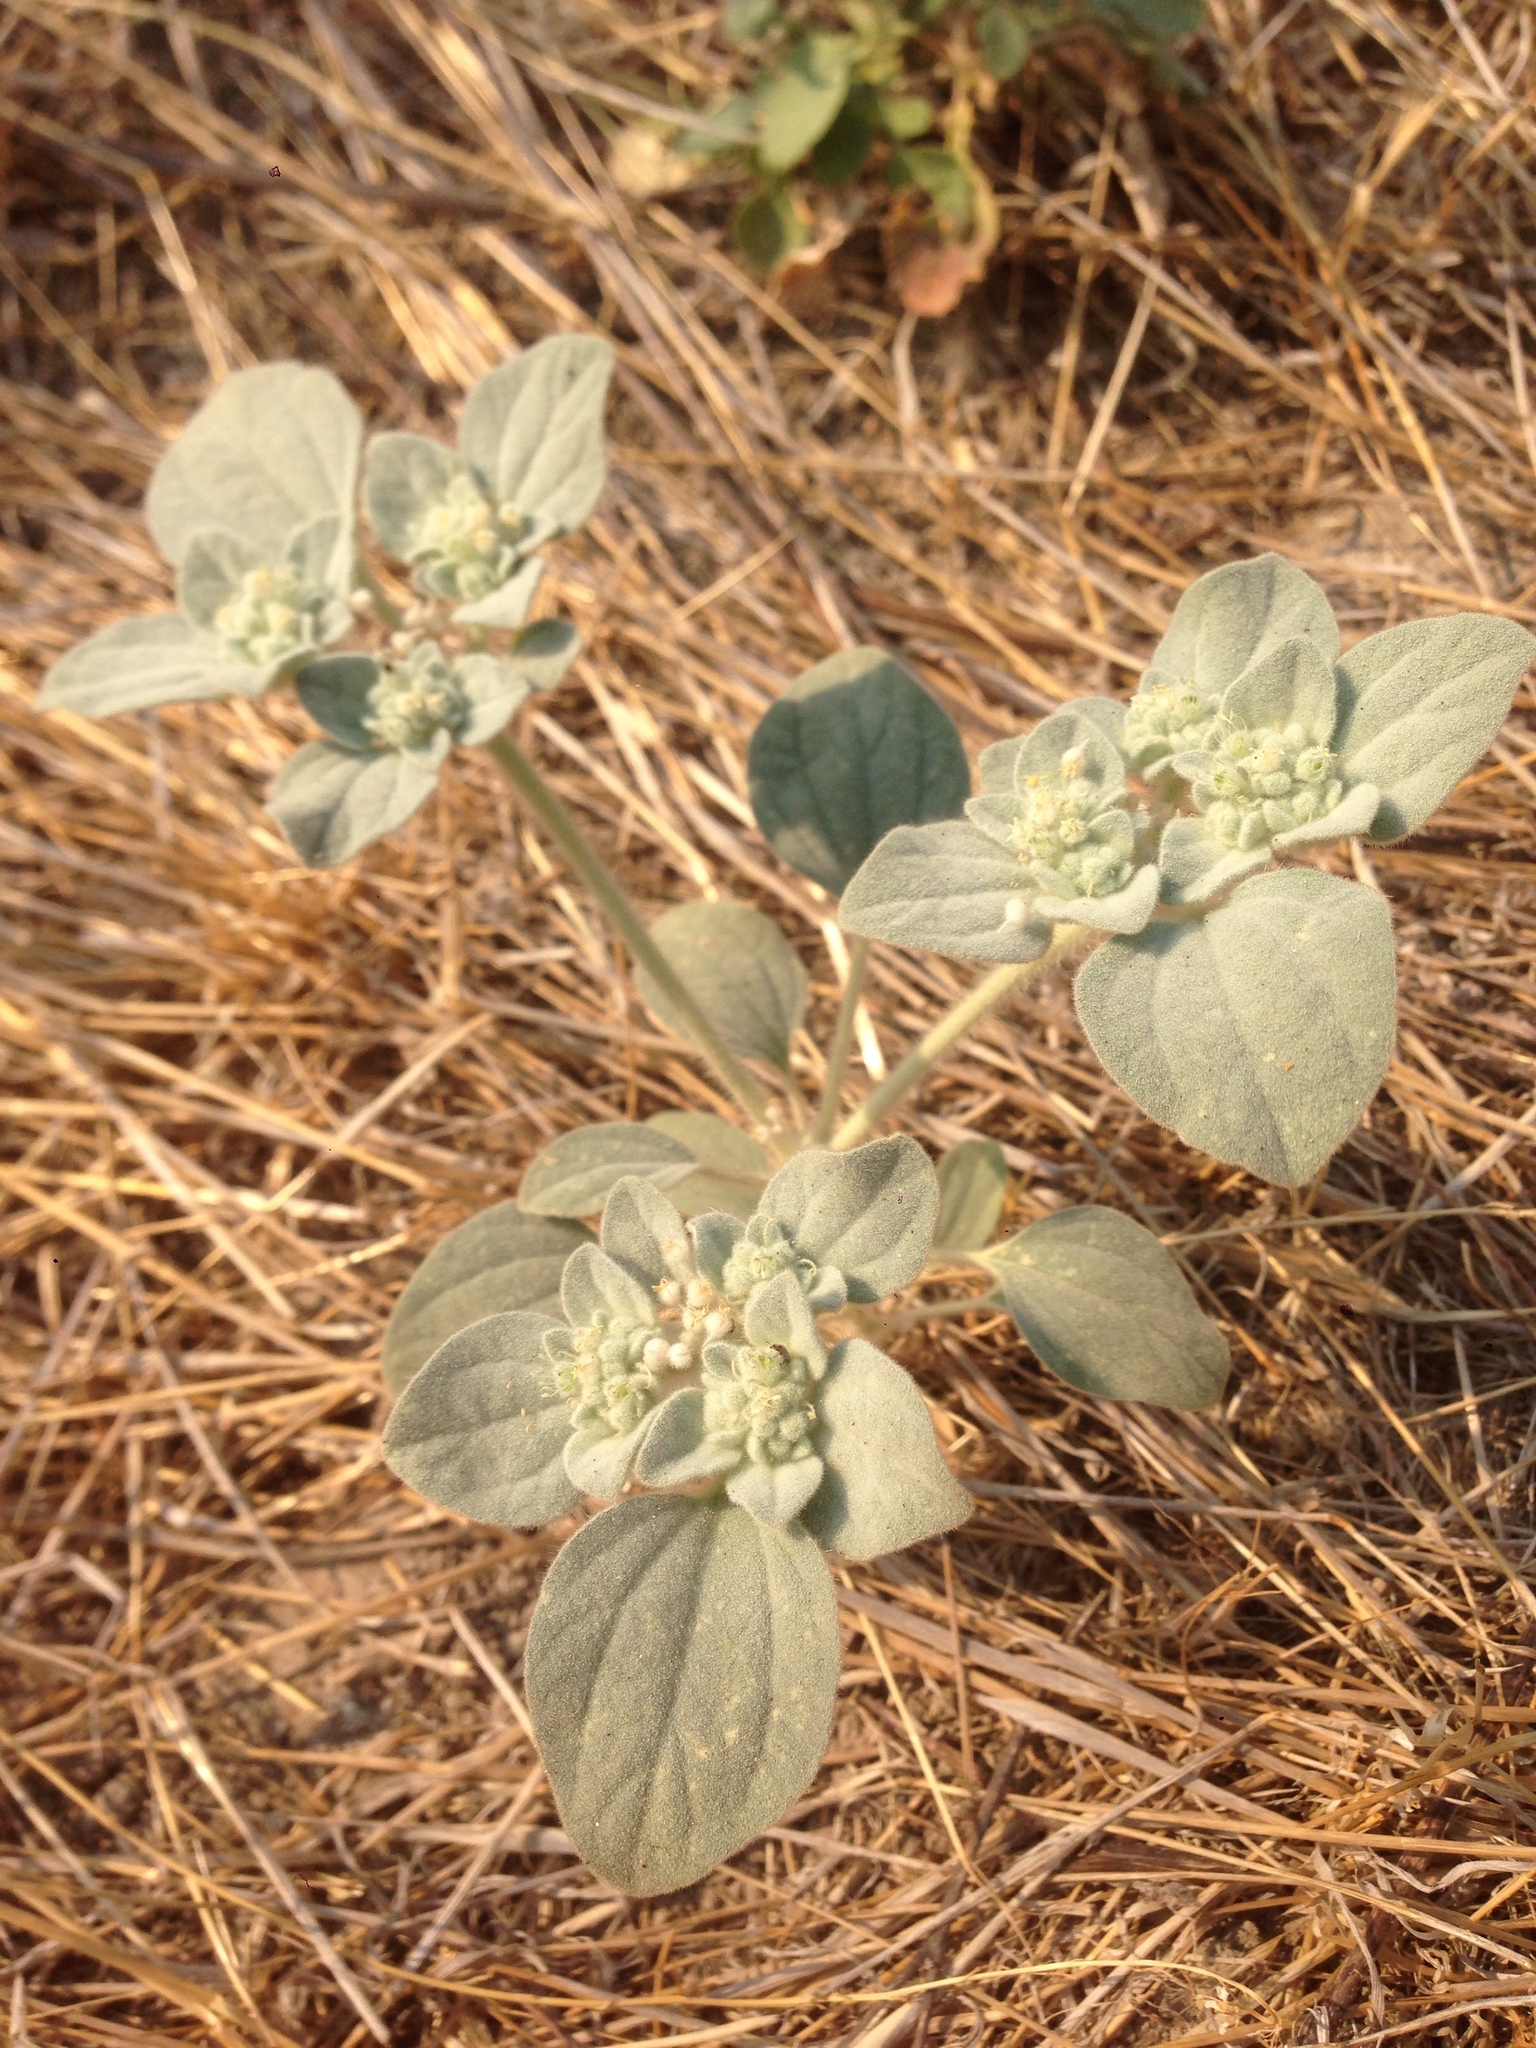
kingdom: Plantae
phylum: Tracheophyta
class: Magnoliopsida
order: Malpighiales
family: Euphorbiaceae
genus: Croton
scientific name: Croton setiger
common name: Dove weed
